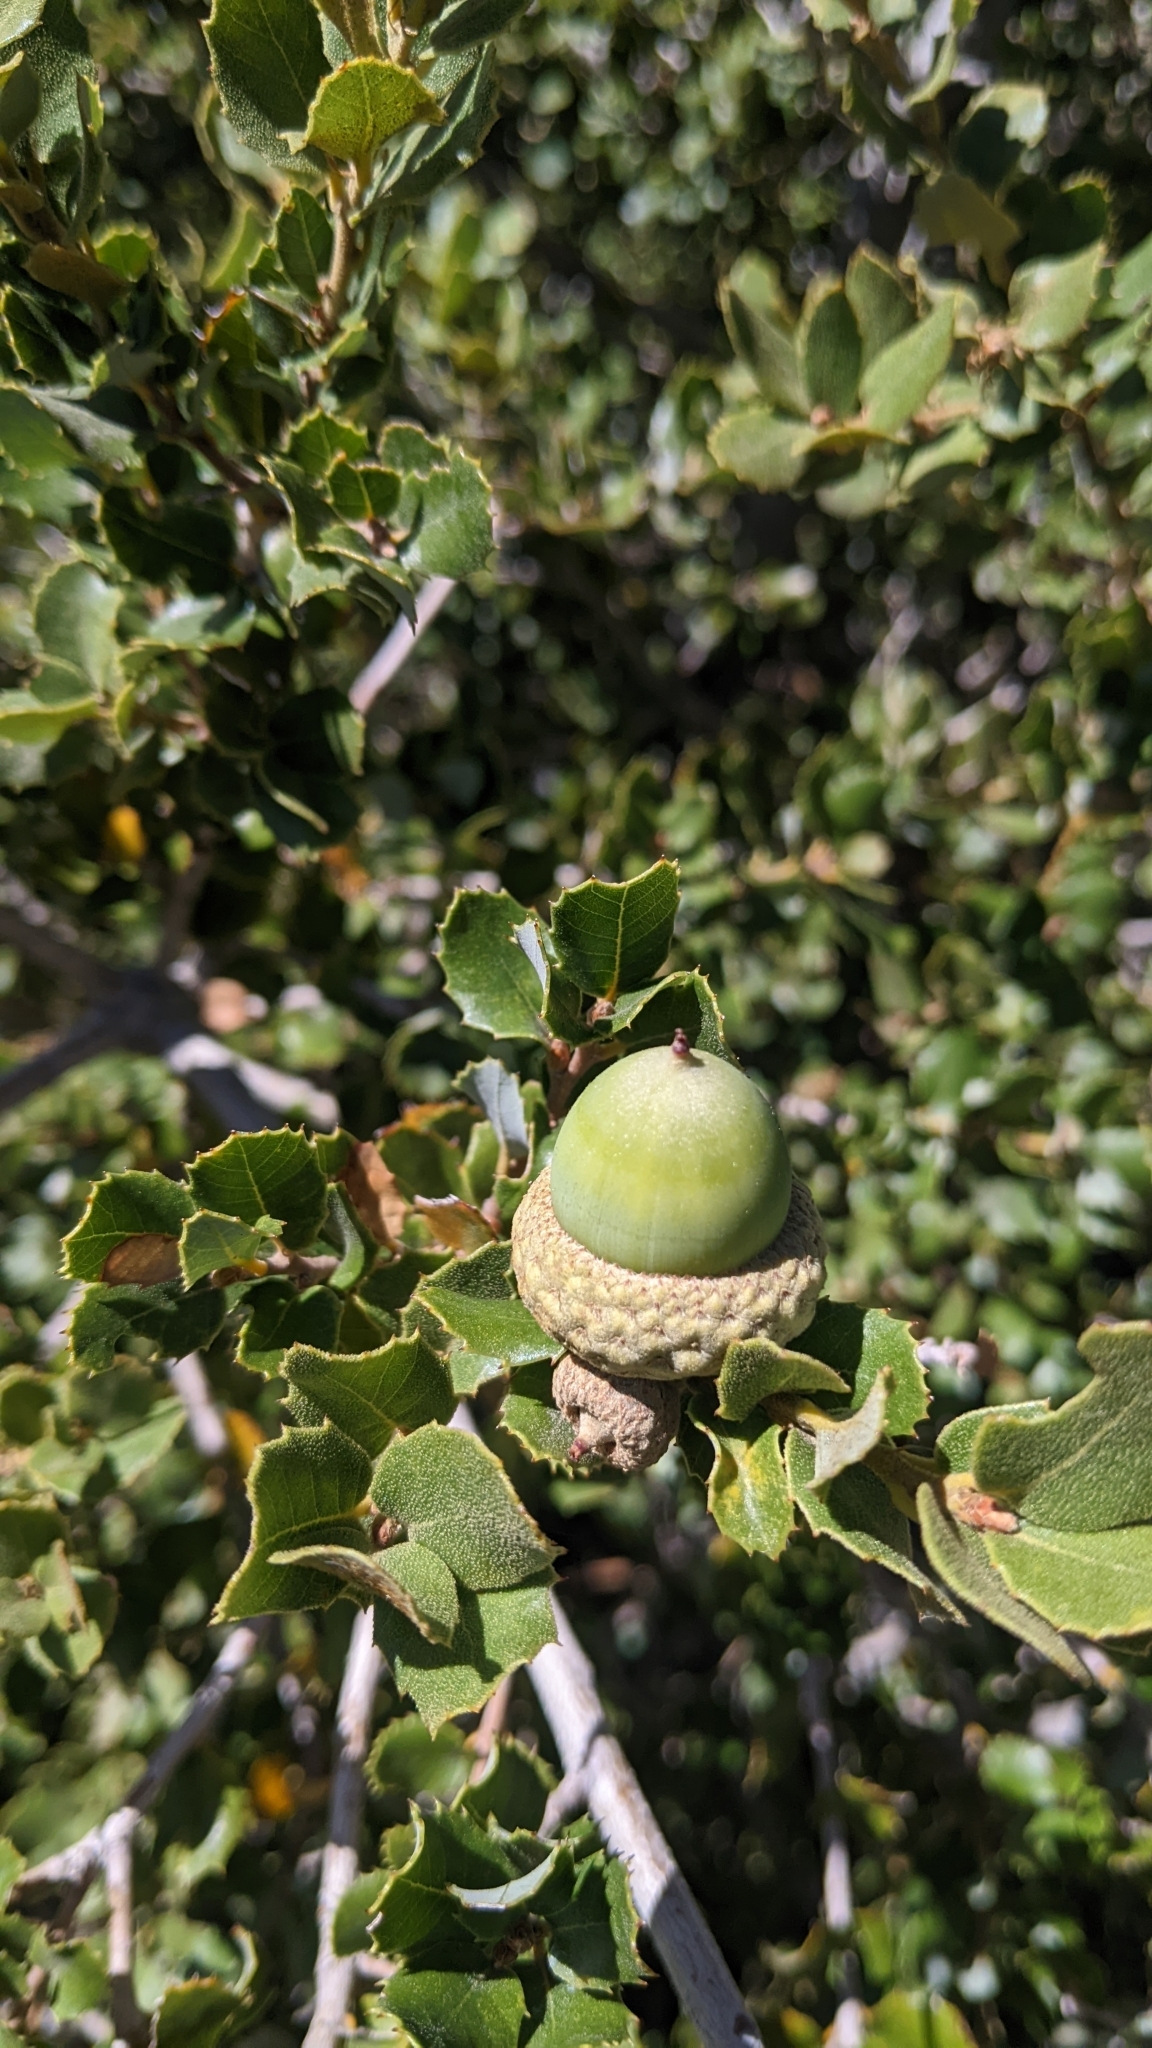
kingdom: Plantae
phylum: Tracheophyta
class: Magnoliopsida
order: Fagales
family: Fagaceae
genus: Quercus
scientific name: Quercus chrysolepis
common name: Canyon live oak
